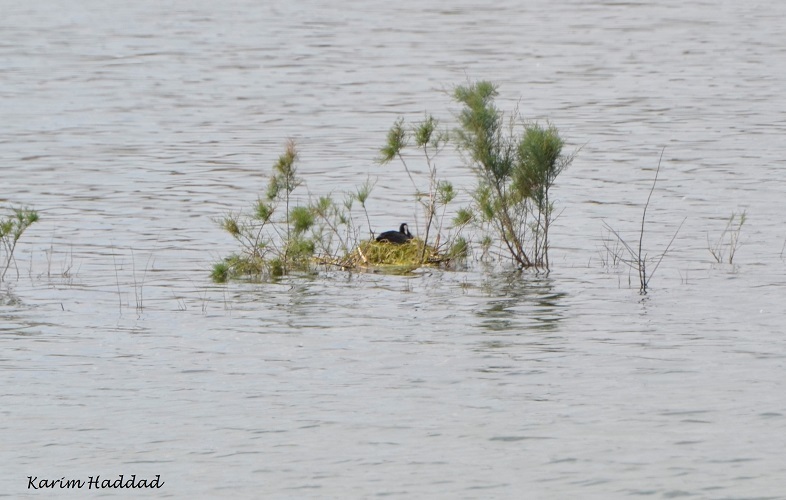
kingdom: Animalia
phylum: Chordata
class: Aves
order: Gruiformes
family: Rallidae
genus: Fulica
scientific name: Fulica atra
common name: Eurasian coot
